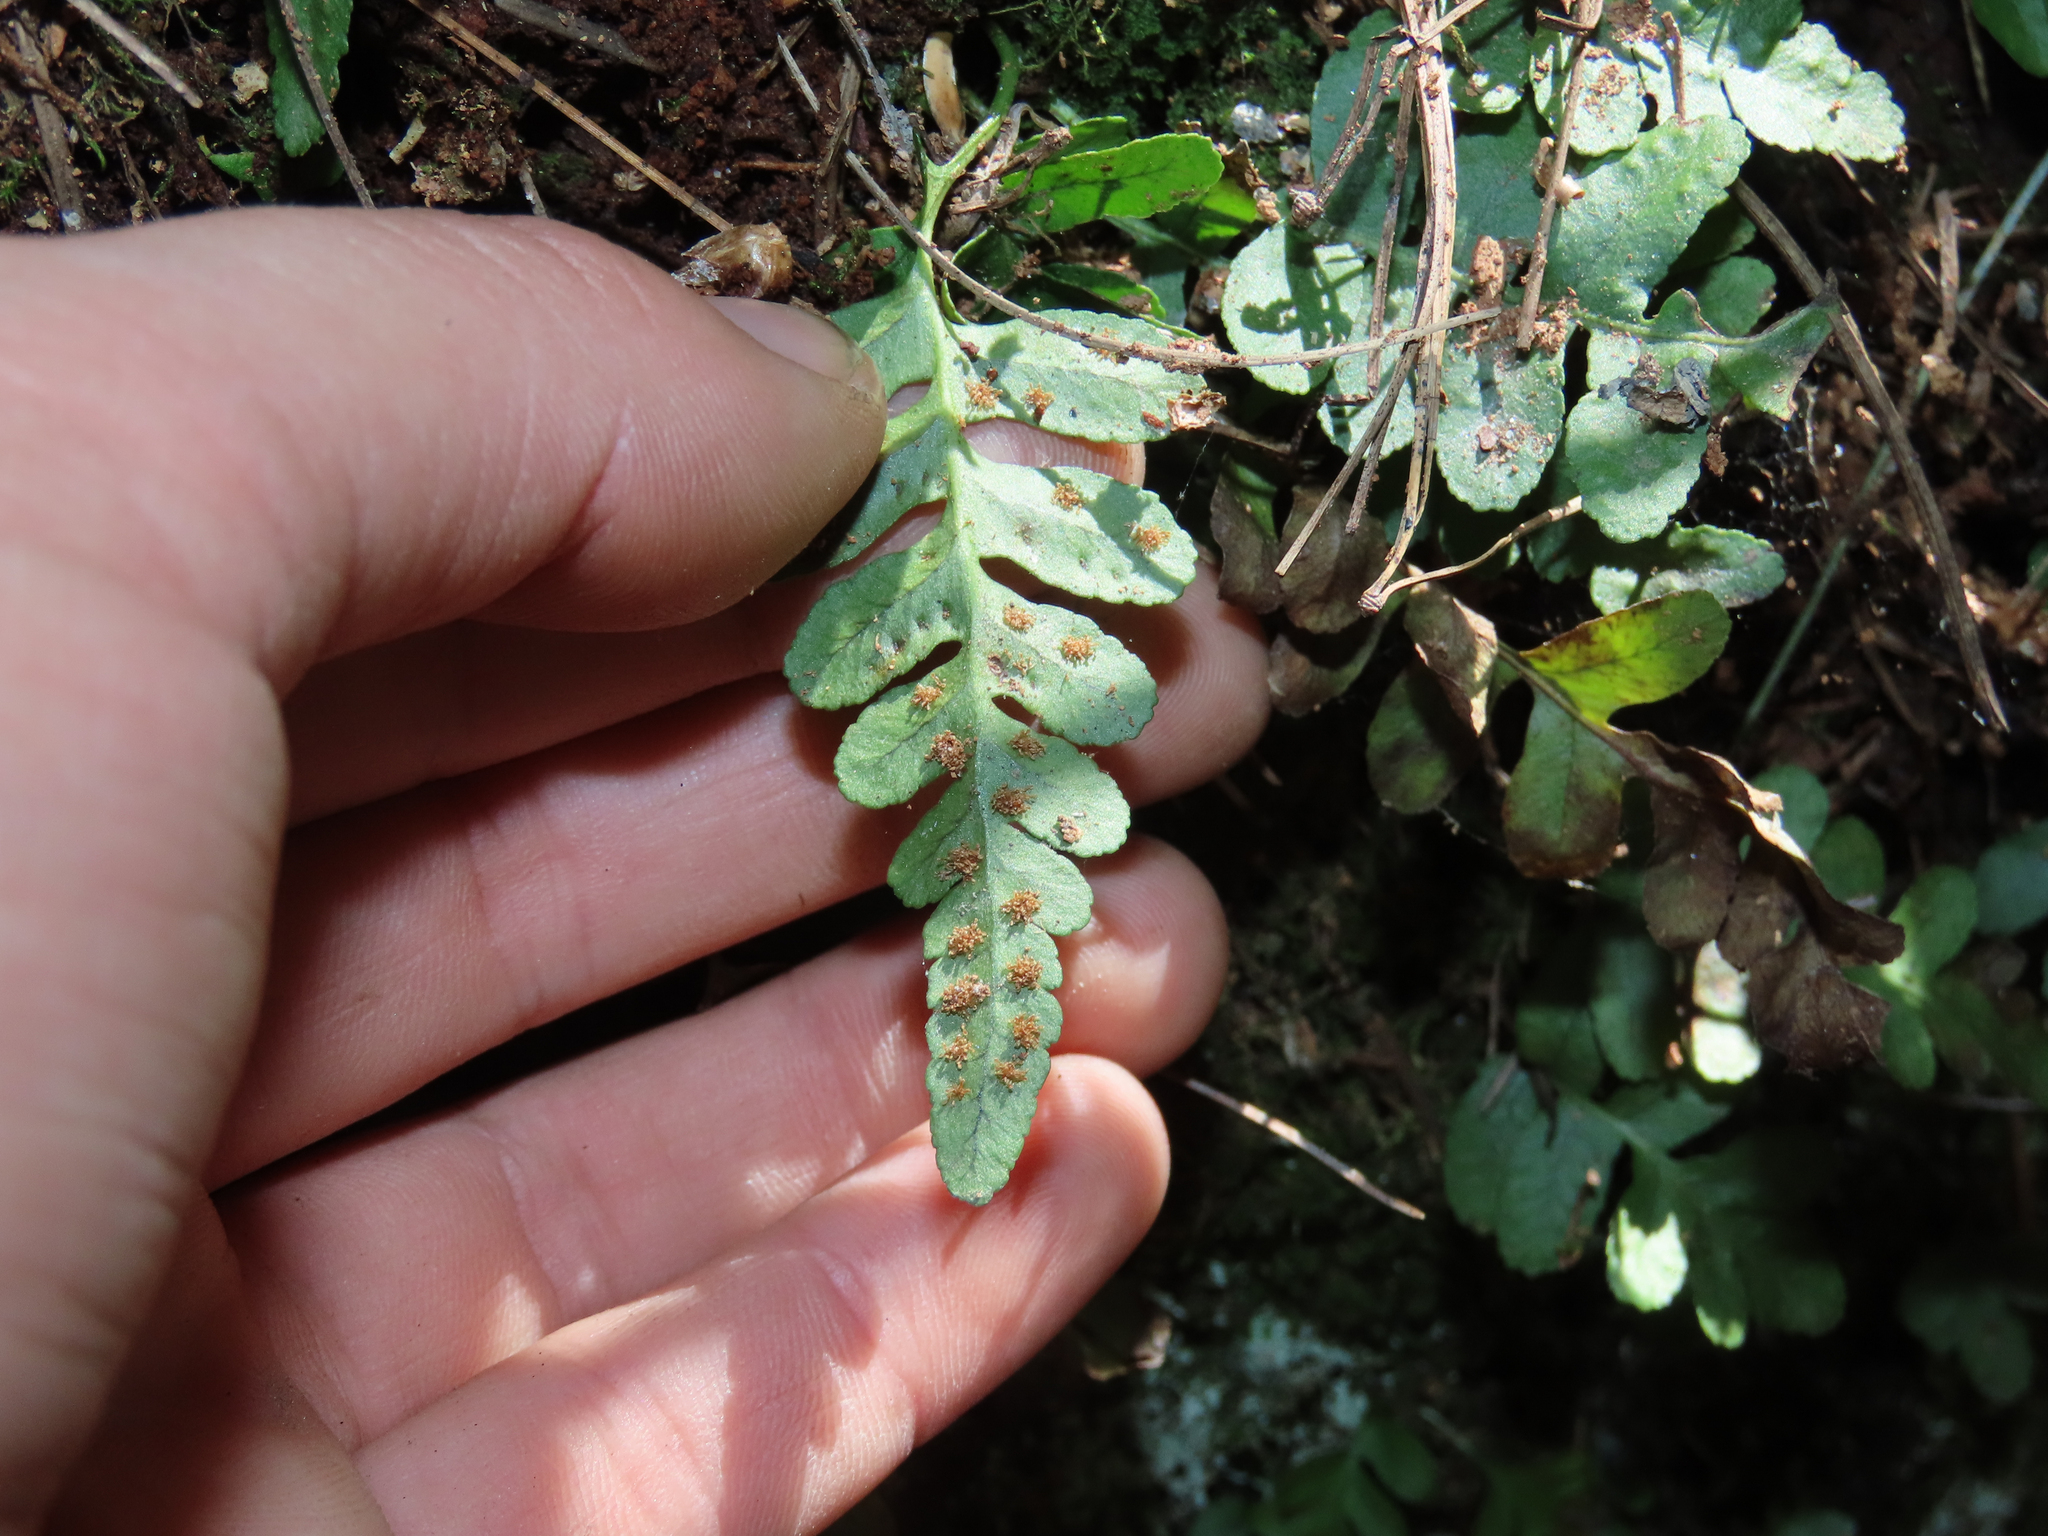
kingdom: Plantae
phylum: Tracheophyta
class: Polypodiopsida
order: Polypodiales
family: Polypodiaceae
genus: Polypodium
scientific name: Polypodium hesperium
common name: Western polypody
